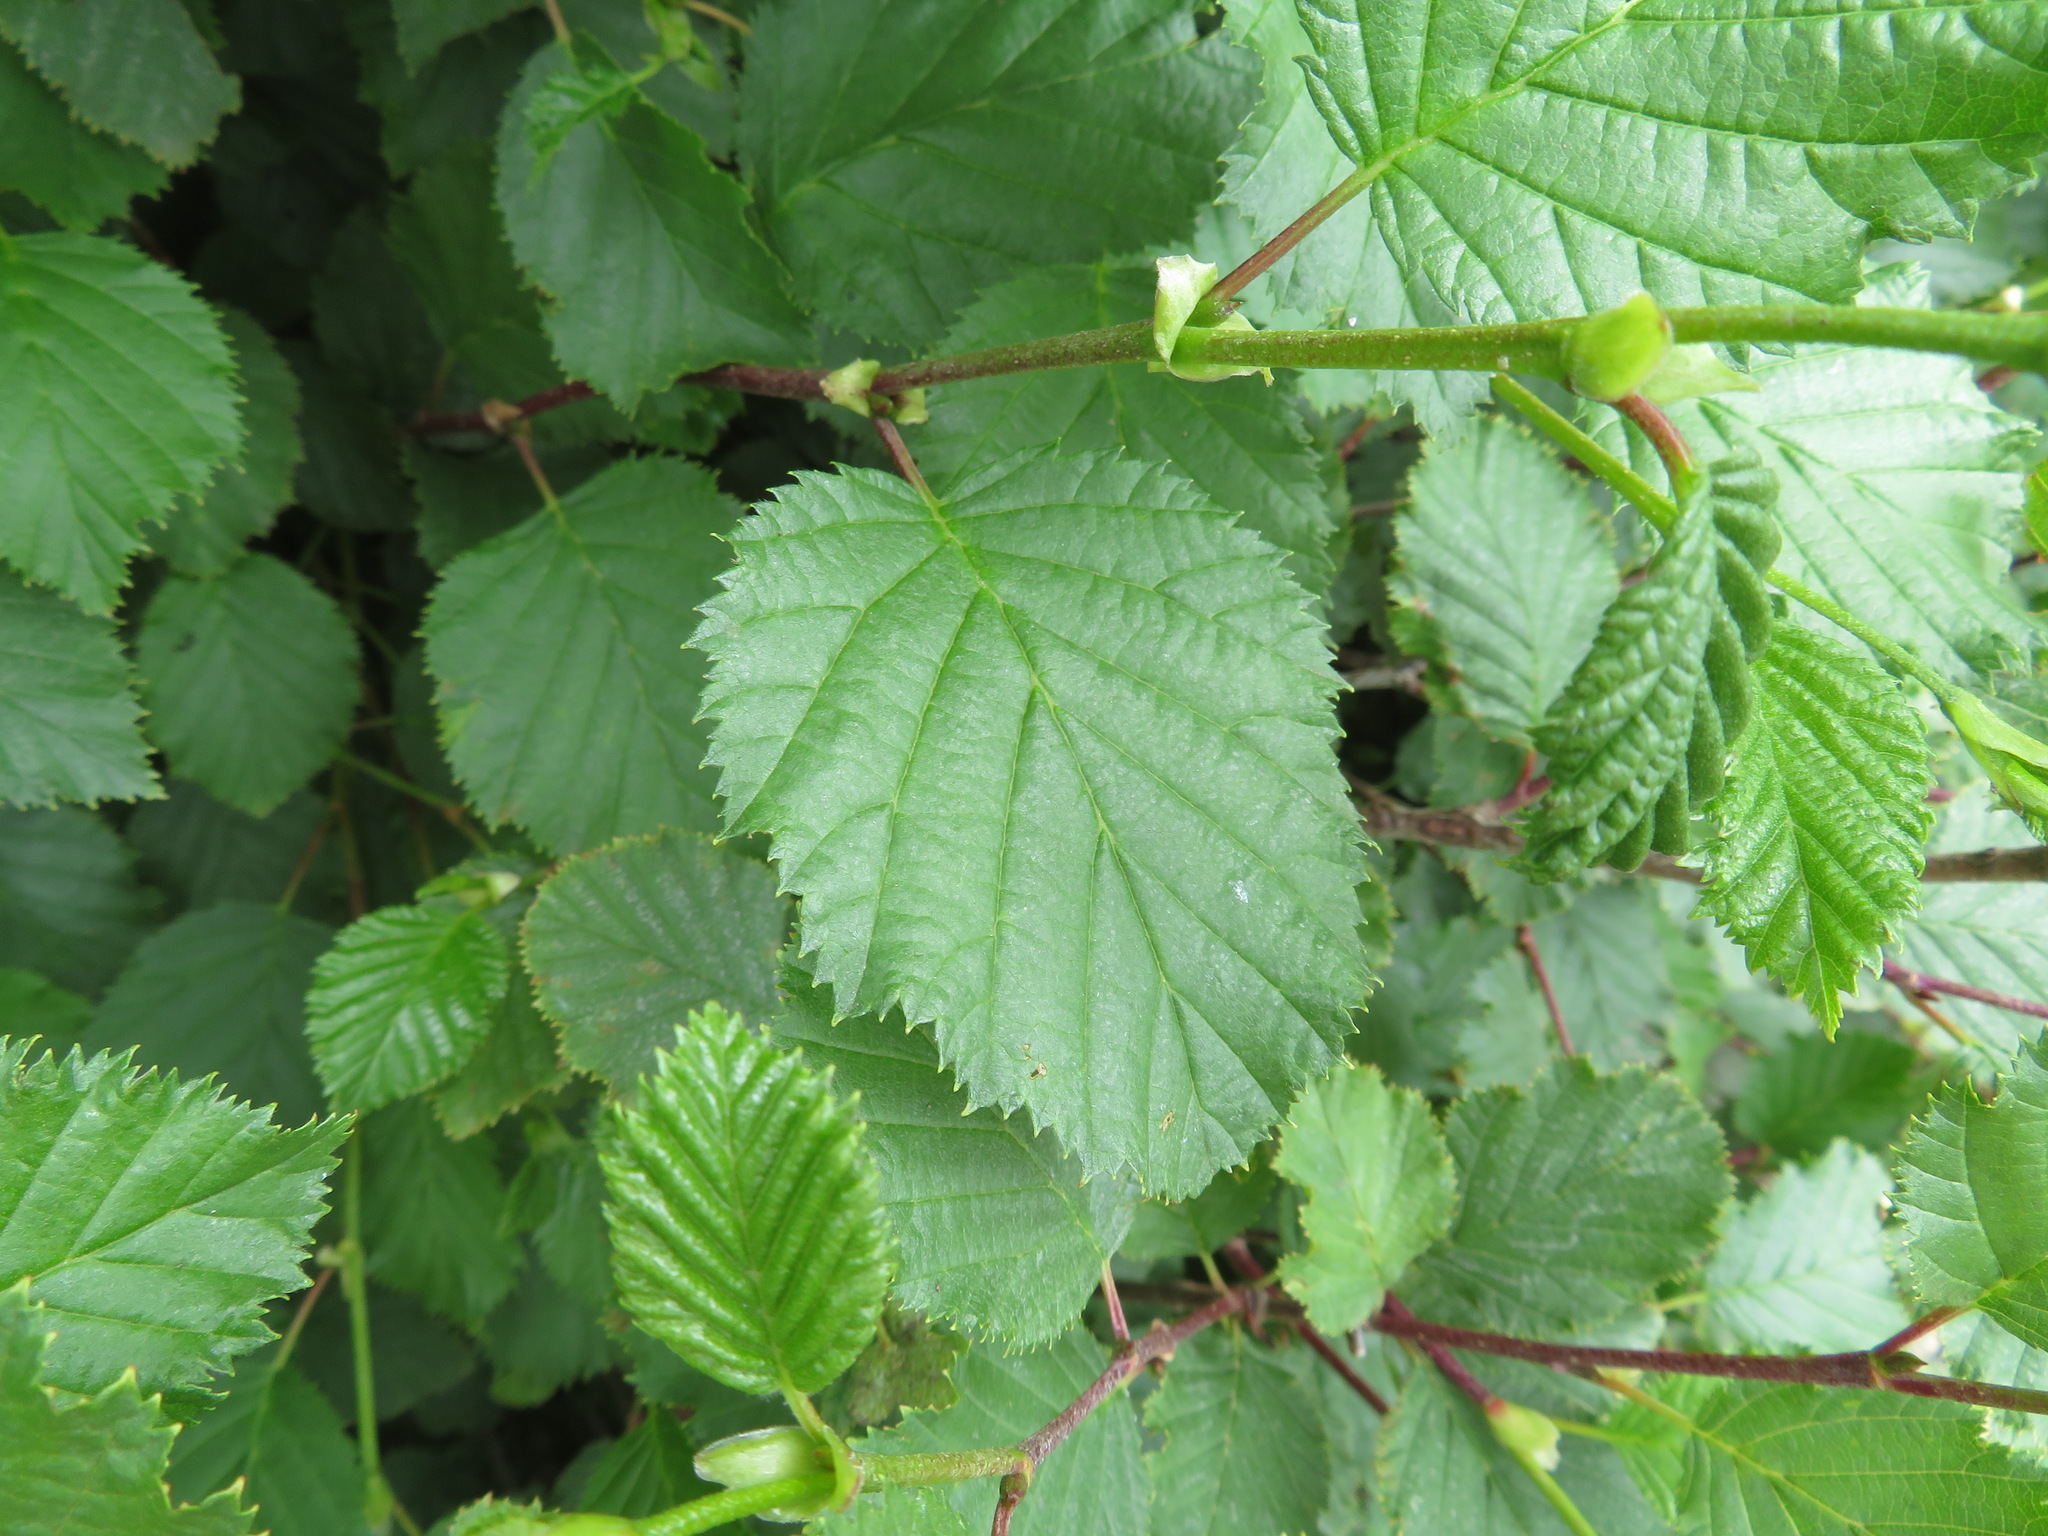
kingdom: Plantae
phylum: Tracheophyta
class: Magnoliopsida
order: Fagales
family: Betulaceae
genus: Alnus
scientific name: Alnus alnobetula
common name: Green alder
